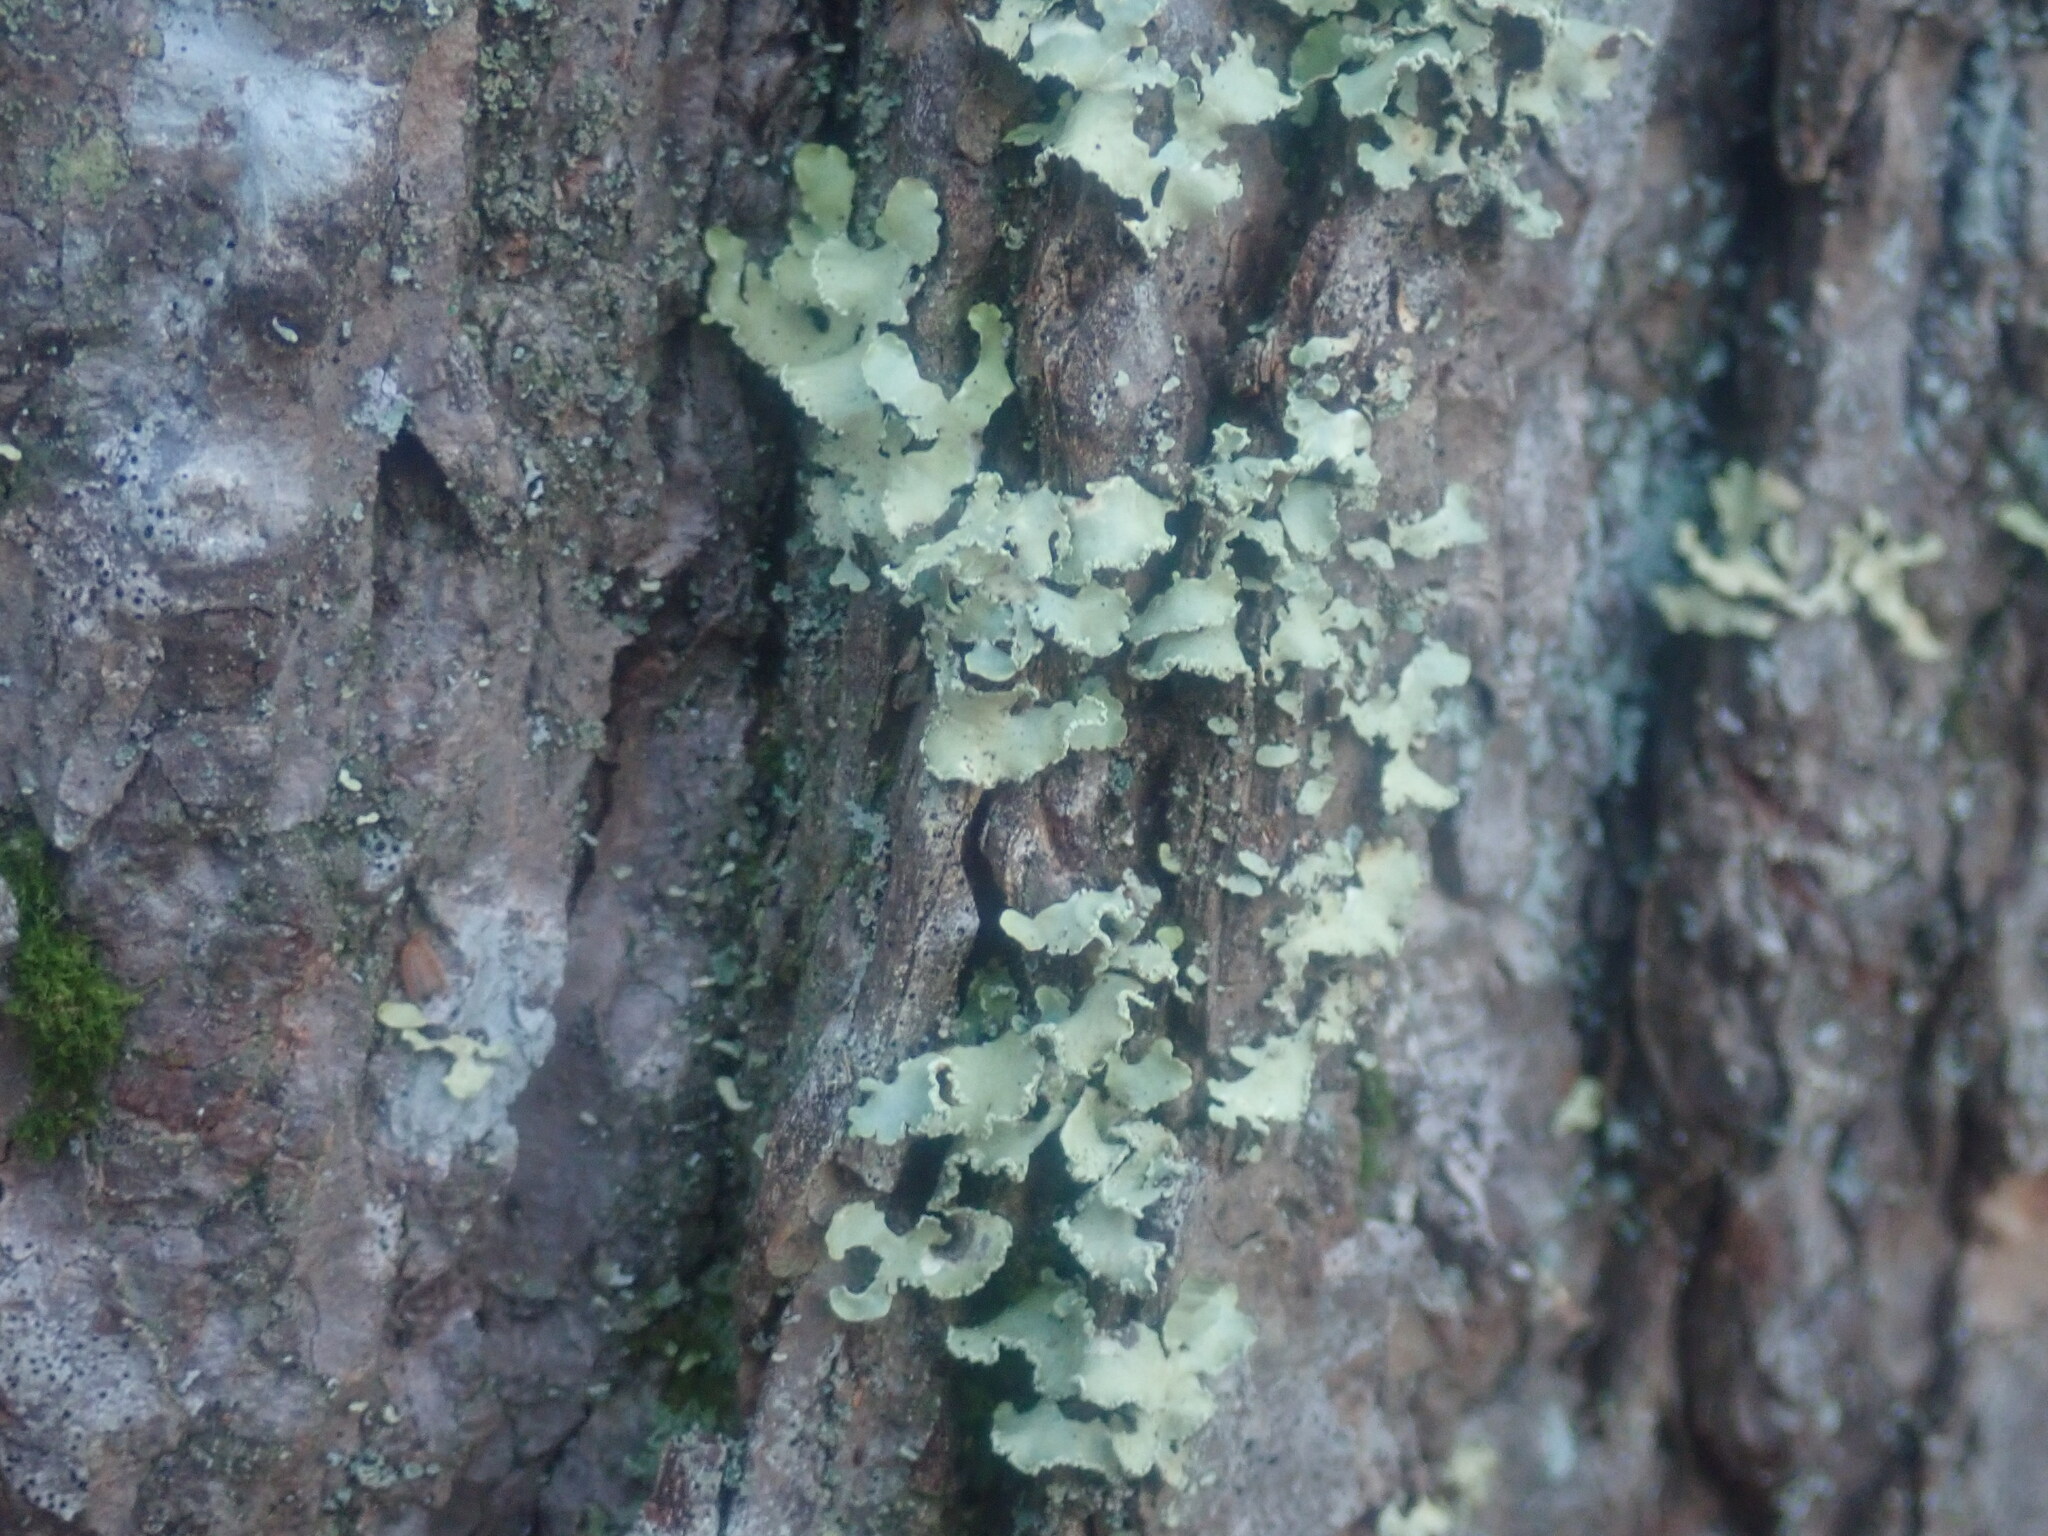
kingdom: Fungi
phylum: Ascomycota
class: Lecanoromycetes
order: Lecanorales
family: Parmeliaceae
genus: Usnocetraria
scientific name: Usnocetraria oakesiana
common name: Yellow ribbon lichen
